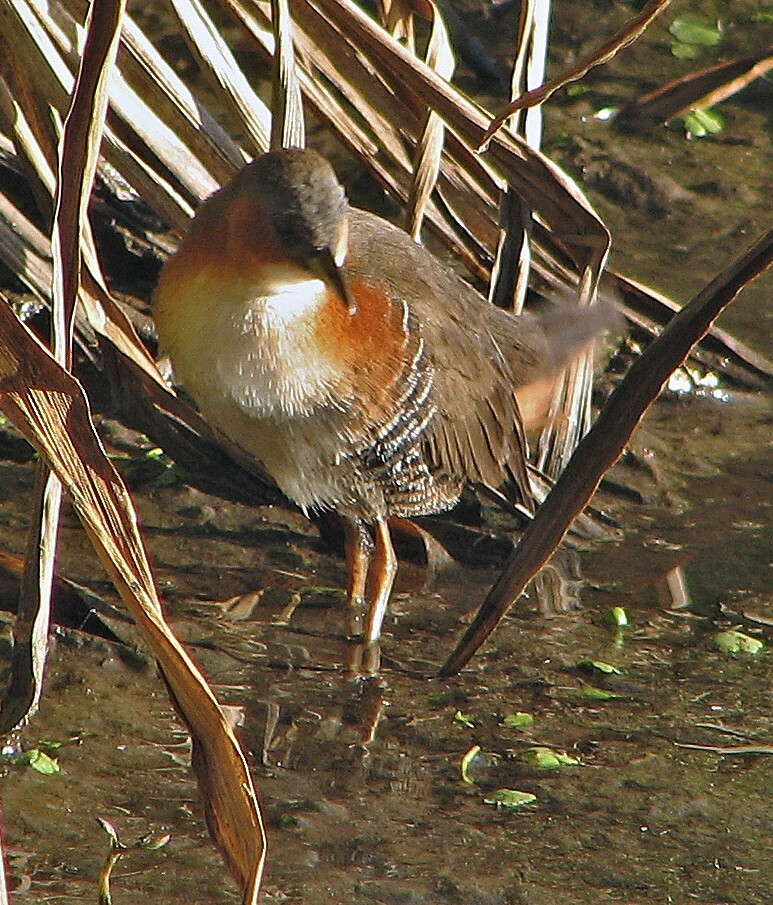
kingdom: Animalia
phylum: Chordata
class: Aves
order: Gruiformes
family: Rallidae
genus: Laterallus
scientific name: Laterallus melanophaius
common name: Rufous-sided crake
